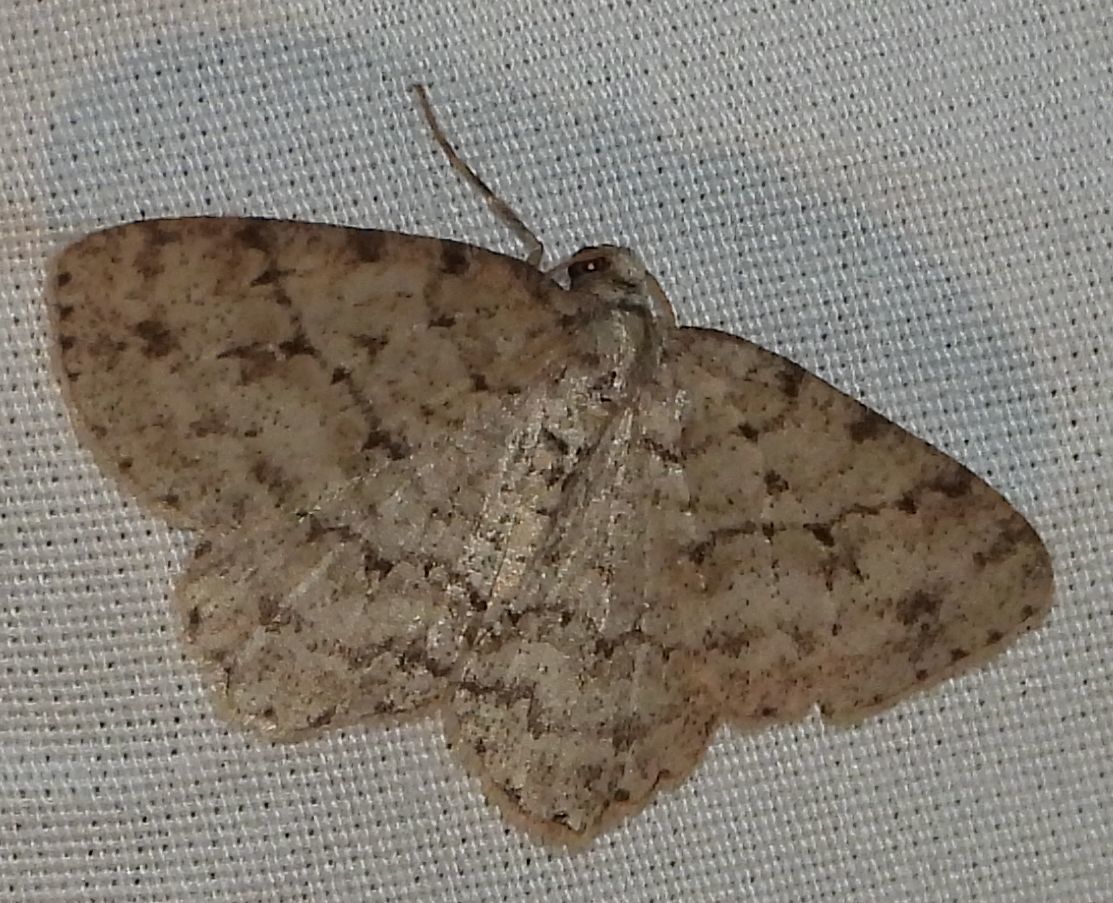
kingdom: Animalia
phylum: Arthropoda
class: Insecta
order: Lepidoptera
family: Geometridae
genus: Ectropis
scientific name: Ectropis crepuscularia
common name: Engrailed
